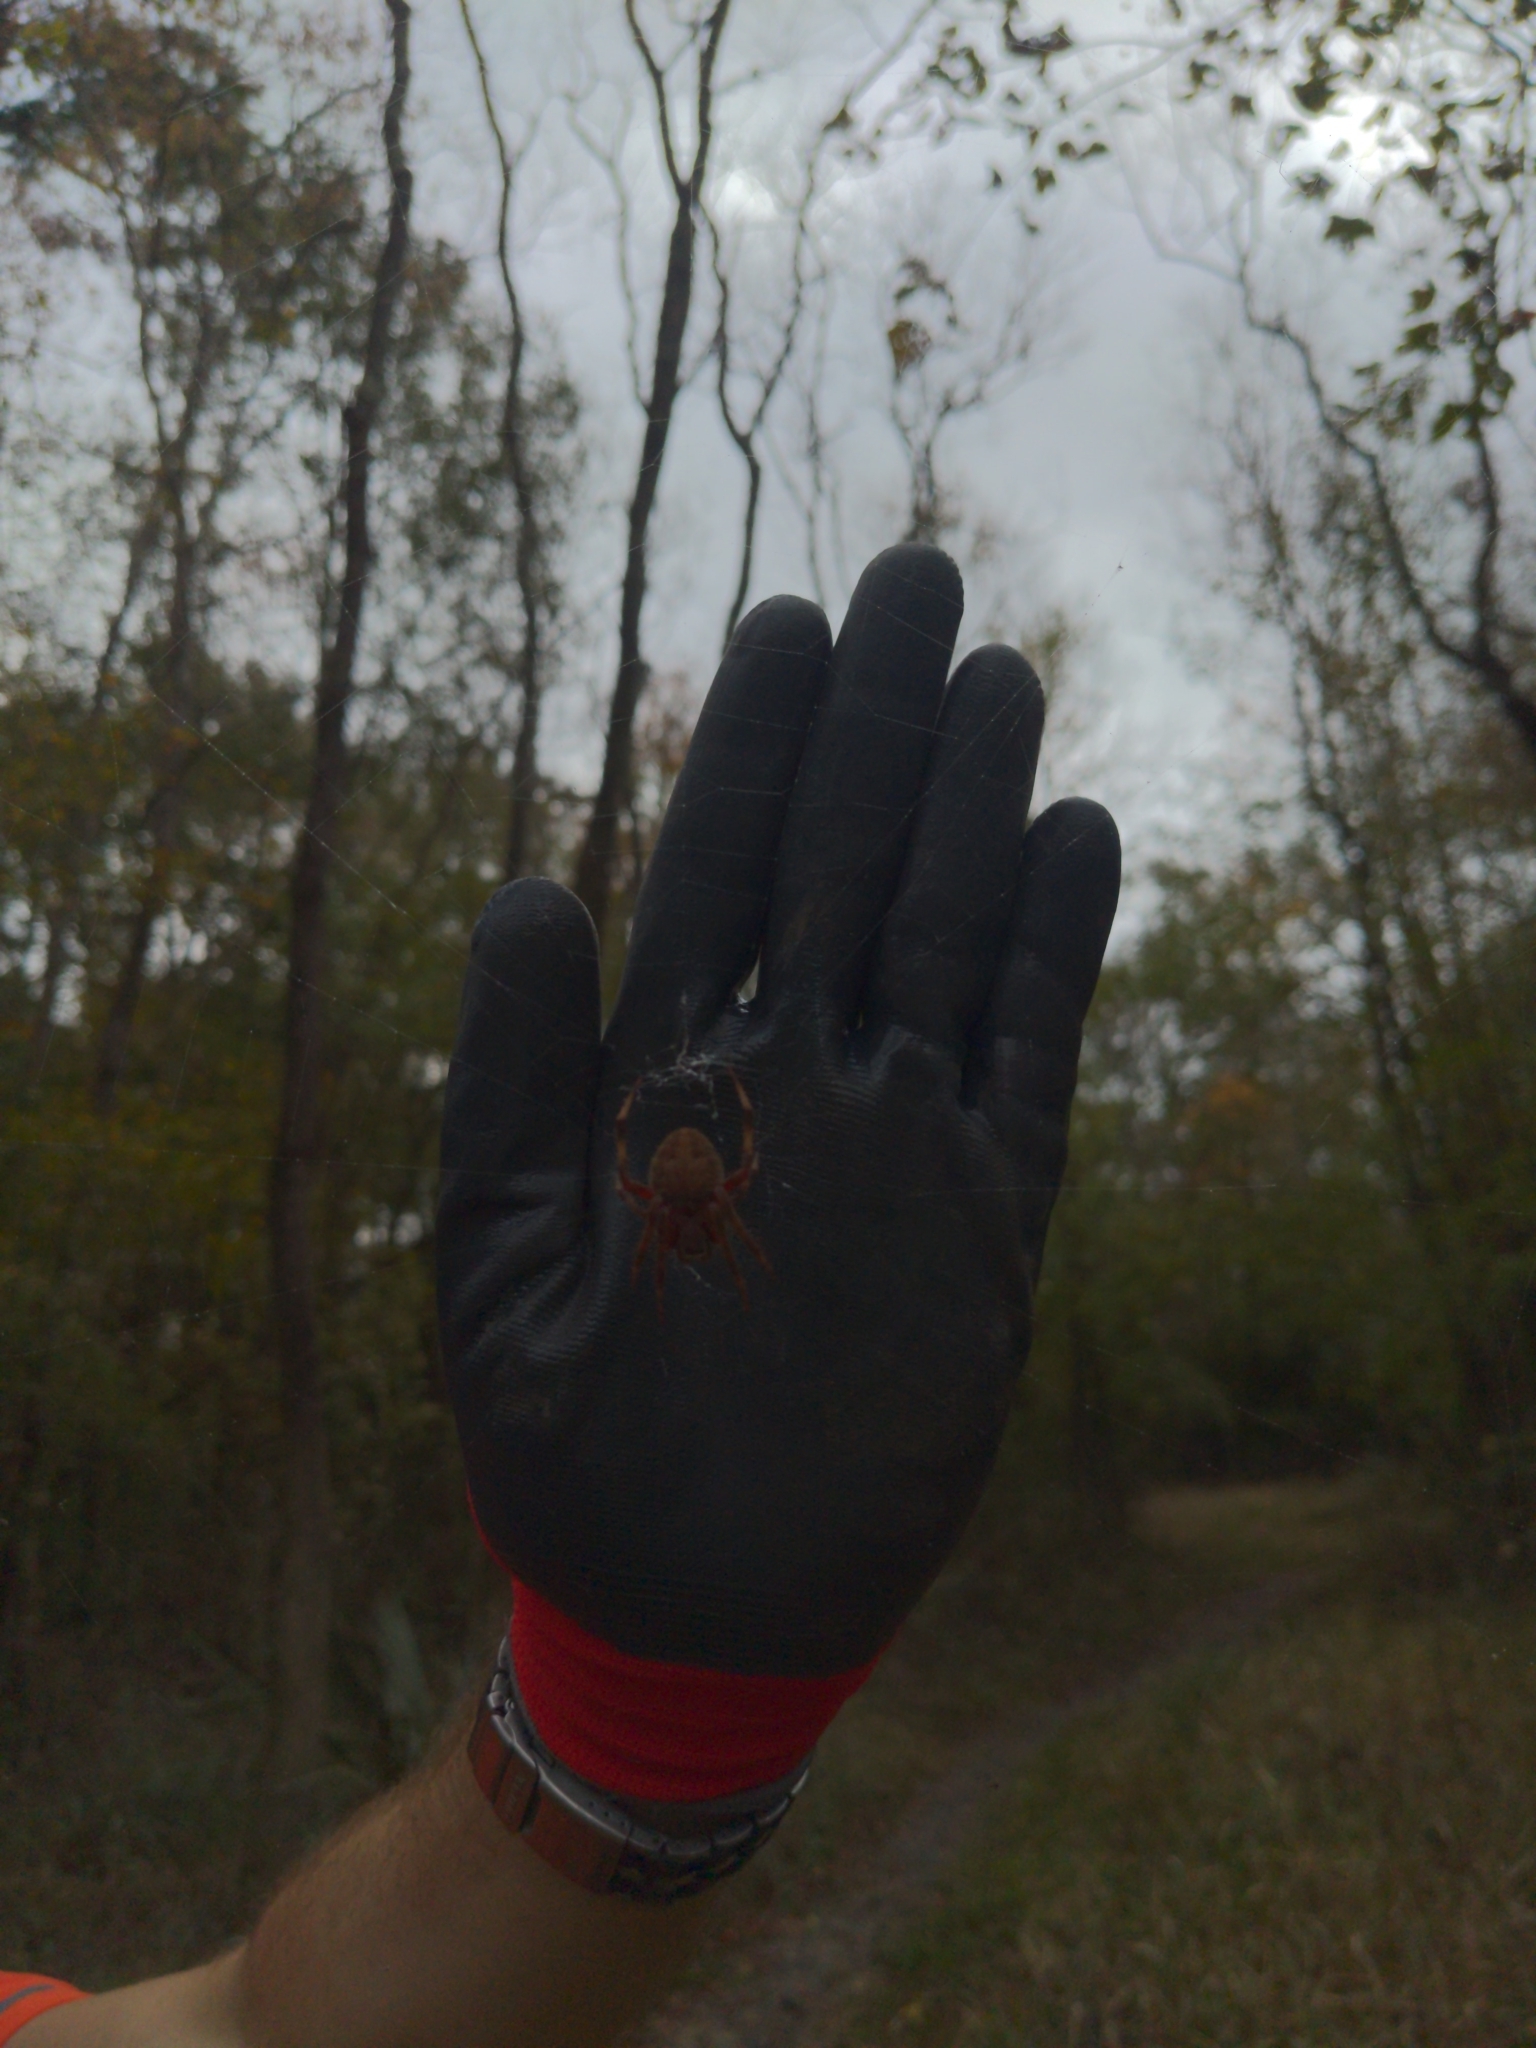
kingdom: Animalia
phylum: Arthropoda
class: Arachnida
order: Araneae
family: Araneidae
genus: Neoscona
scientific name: Neoscona crucifera
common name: Spotted orbweaver
